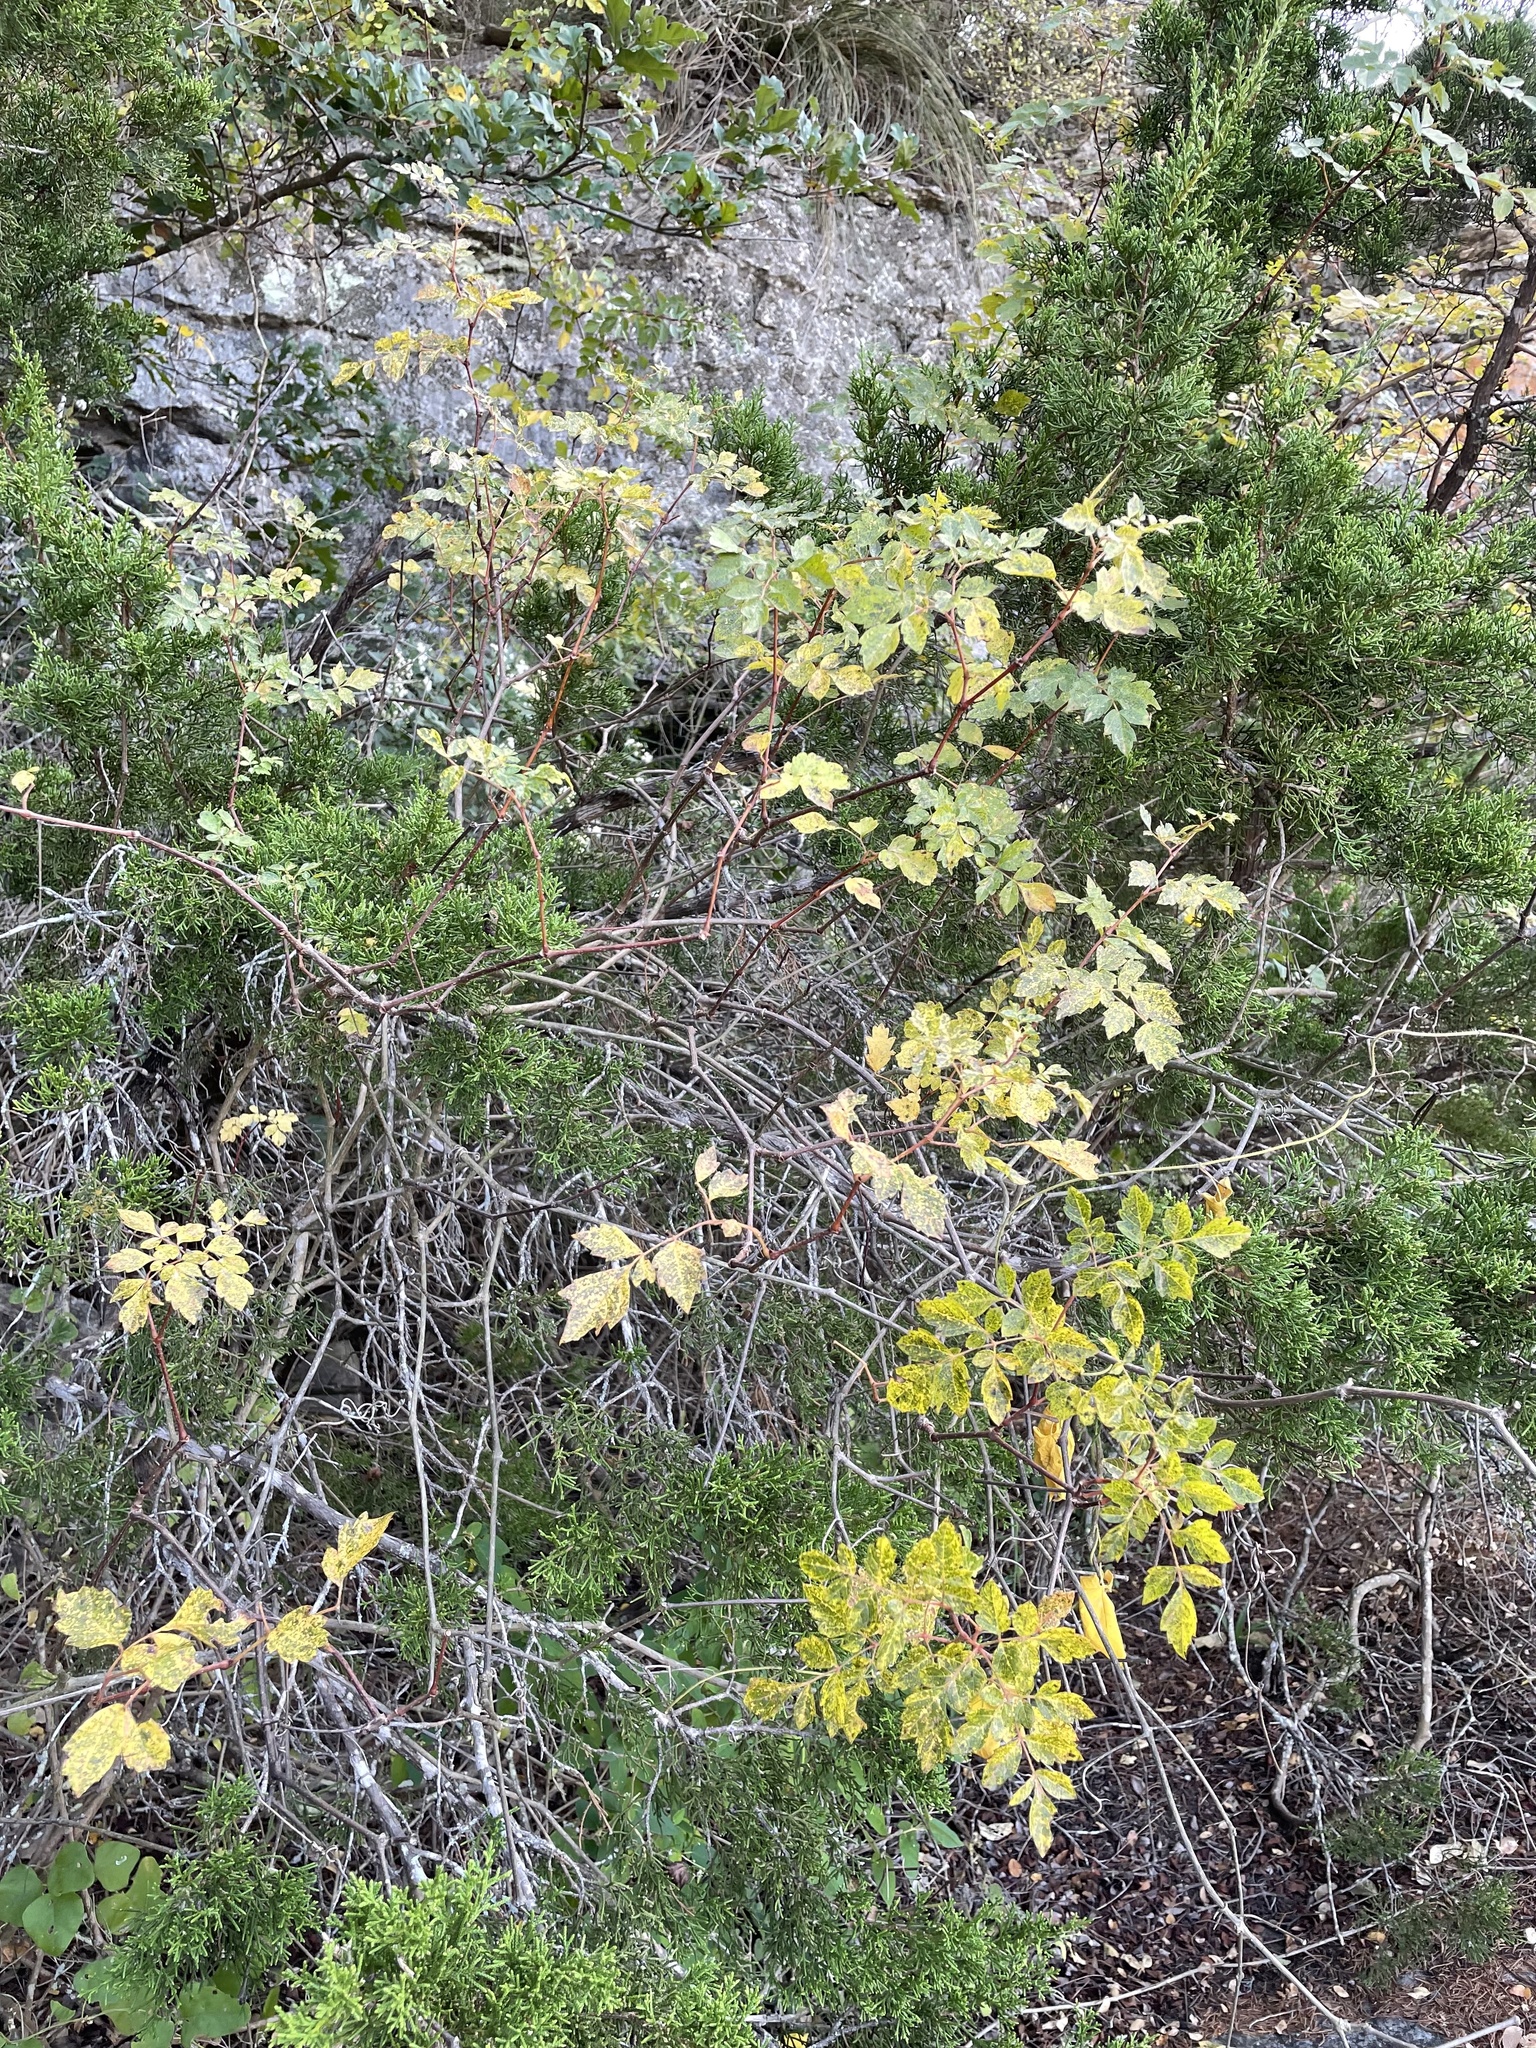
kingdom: Plantae
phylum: Tracheophyta
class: Magnoliopsida
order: Vitales
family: Vitaceae
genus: Nekemias
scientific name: Nekemias arborea
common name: Peppervine
